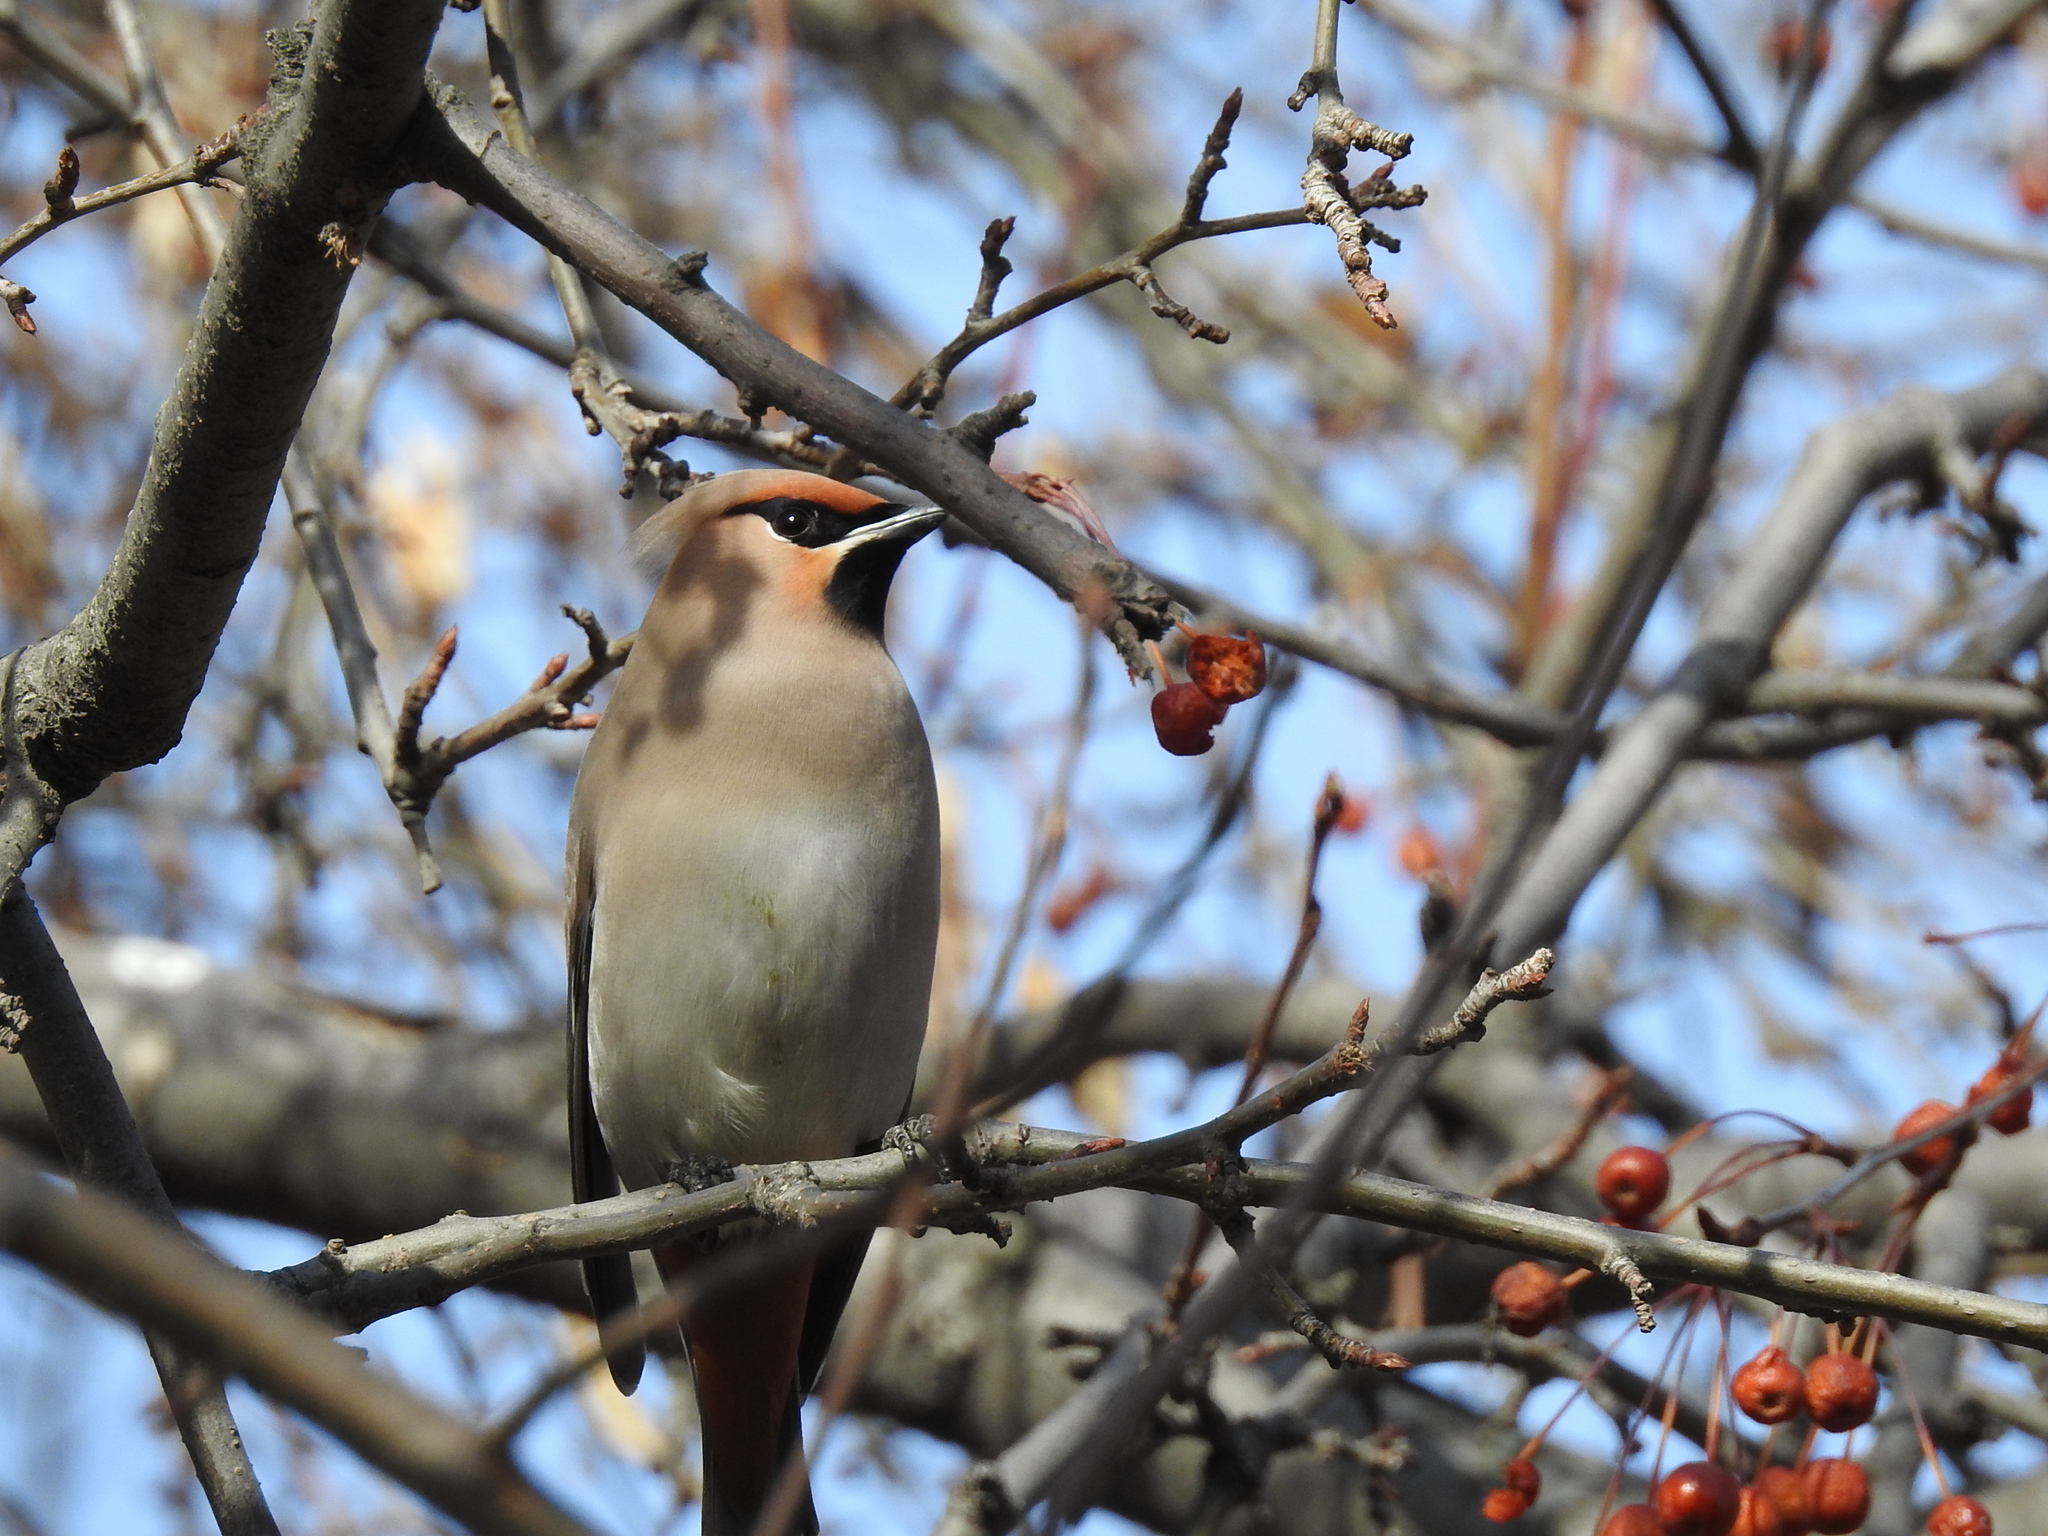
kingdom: Animalia
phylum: Chordata
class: Aves
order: Passeriformes
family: Bombycillidae
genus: Bombycilla
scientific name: Bombycilla garrulus
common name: Bohemian waxwing
